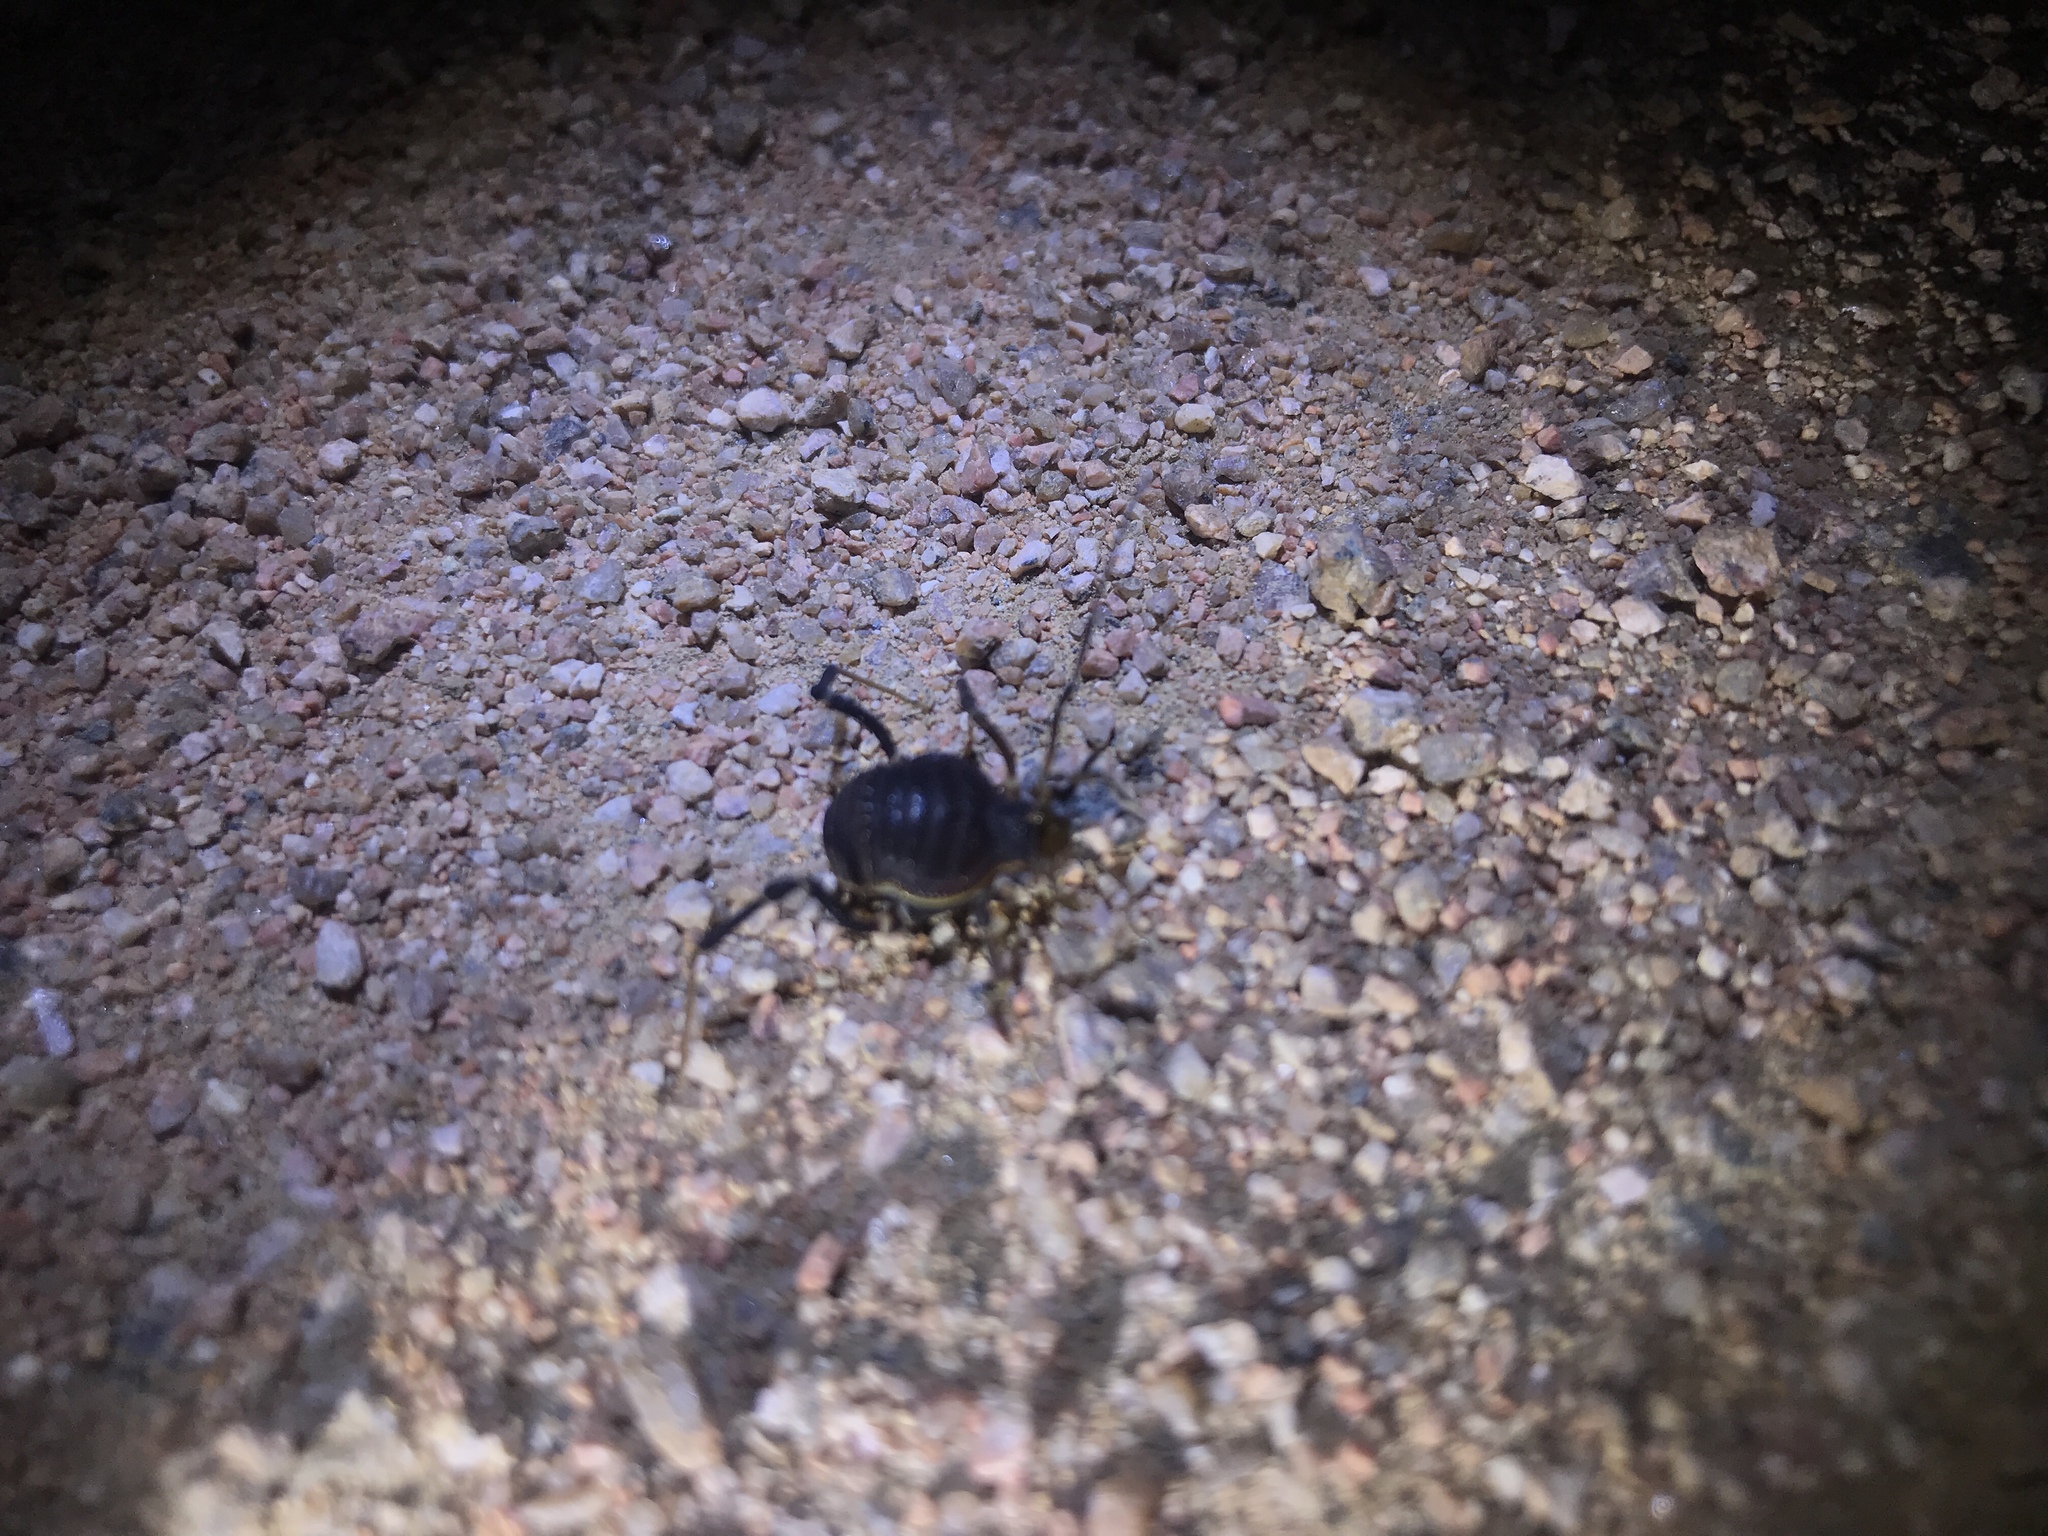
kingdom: Animalia
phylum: Arthropoda
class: Arachnida
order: Opiliones
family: Gonyleptidae
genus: Acanthopachylus
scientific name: Acanthopachylus robustus
